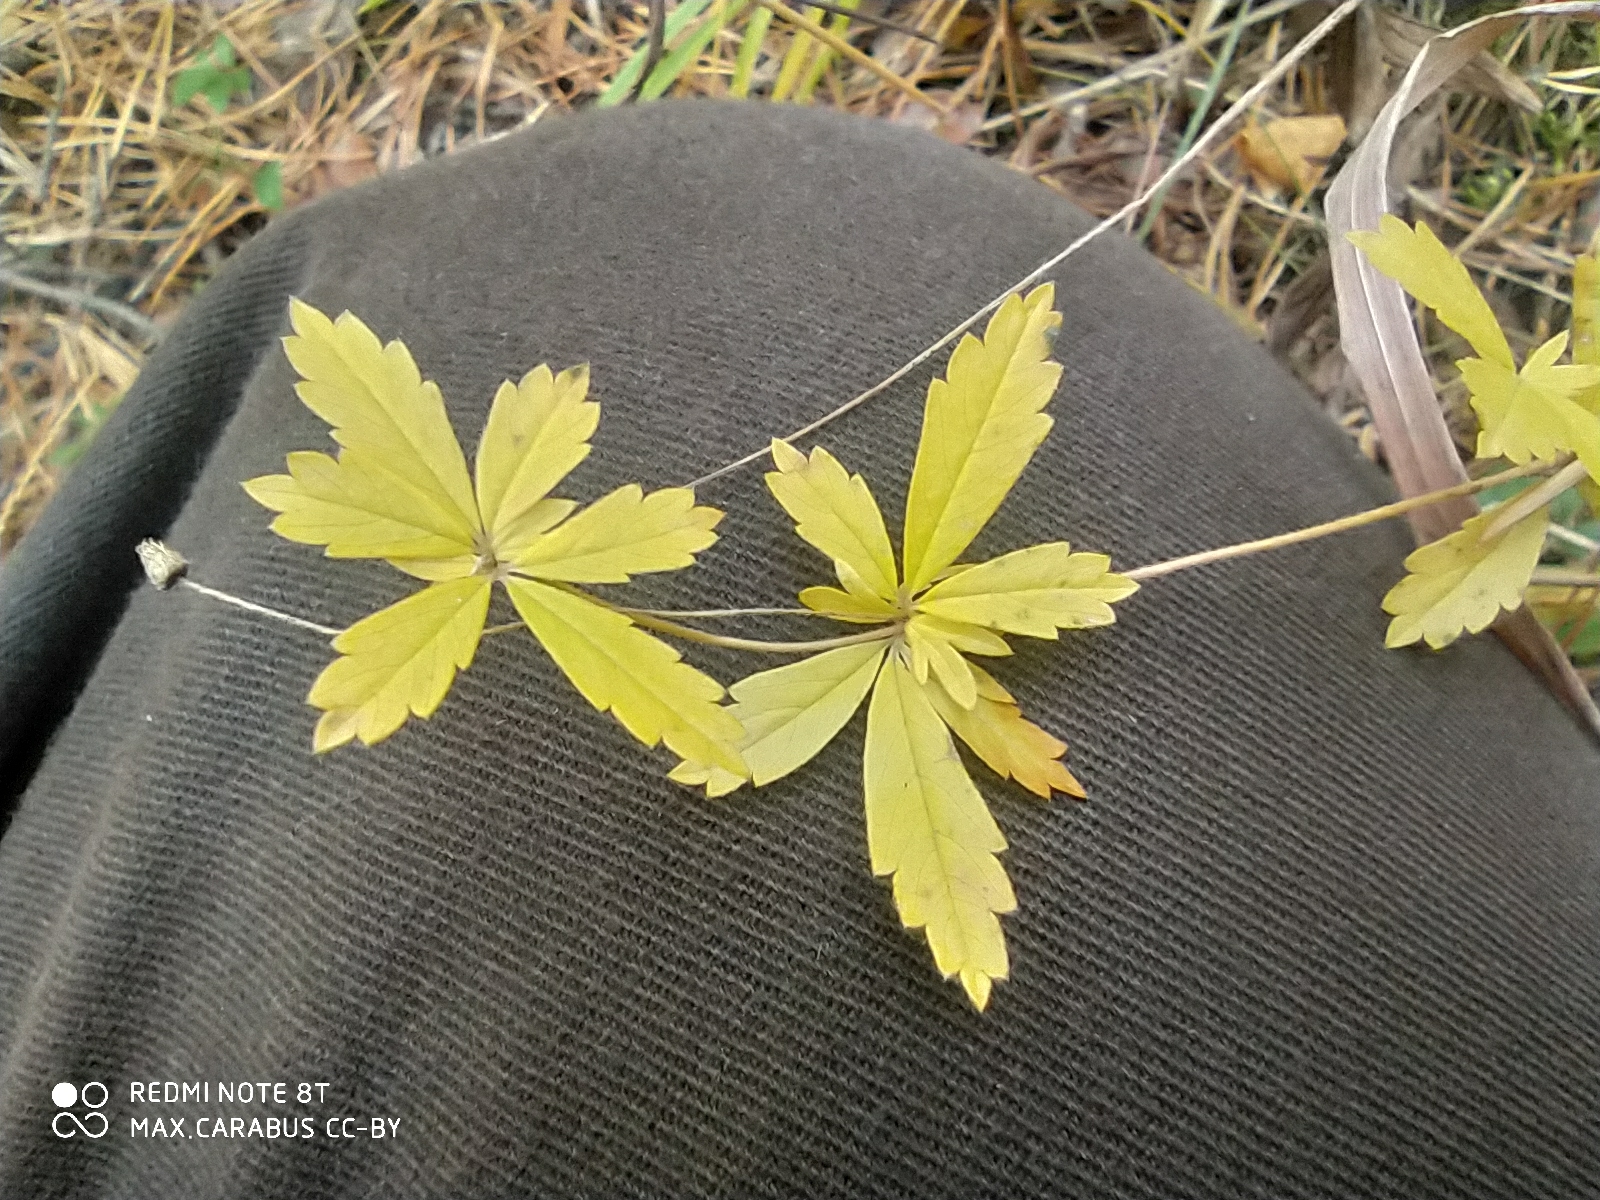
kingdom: Plantae
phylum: Tracheophyta
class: Magnoliopsida
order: Rosales
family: Rosaceae
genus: Potentilla
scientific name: Potentilla erecta
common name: Tormentil
